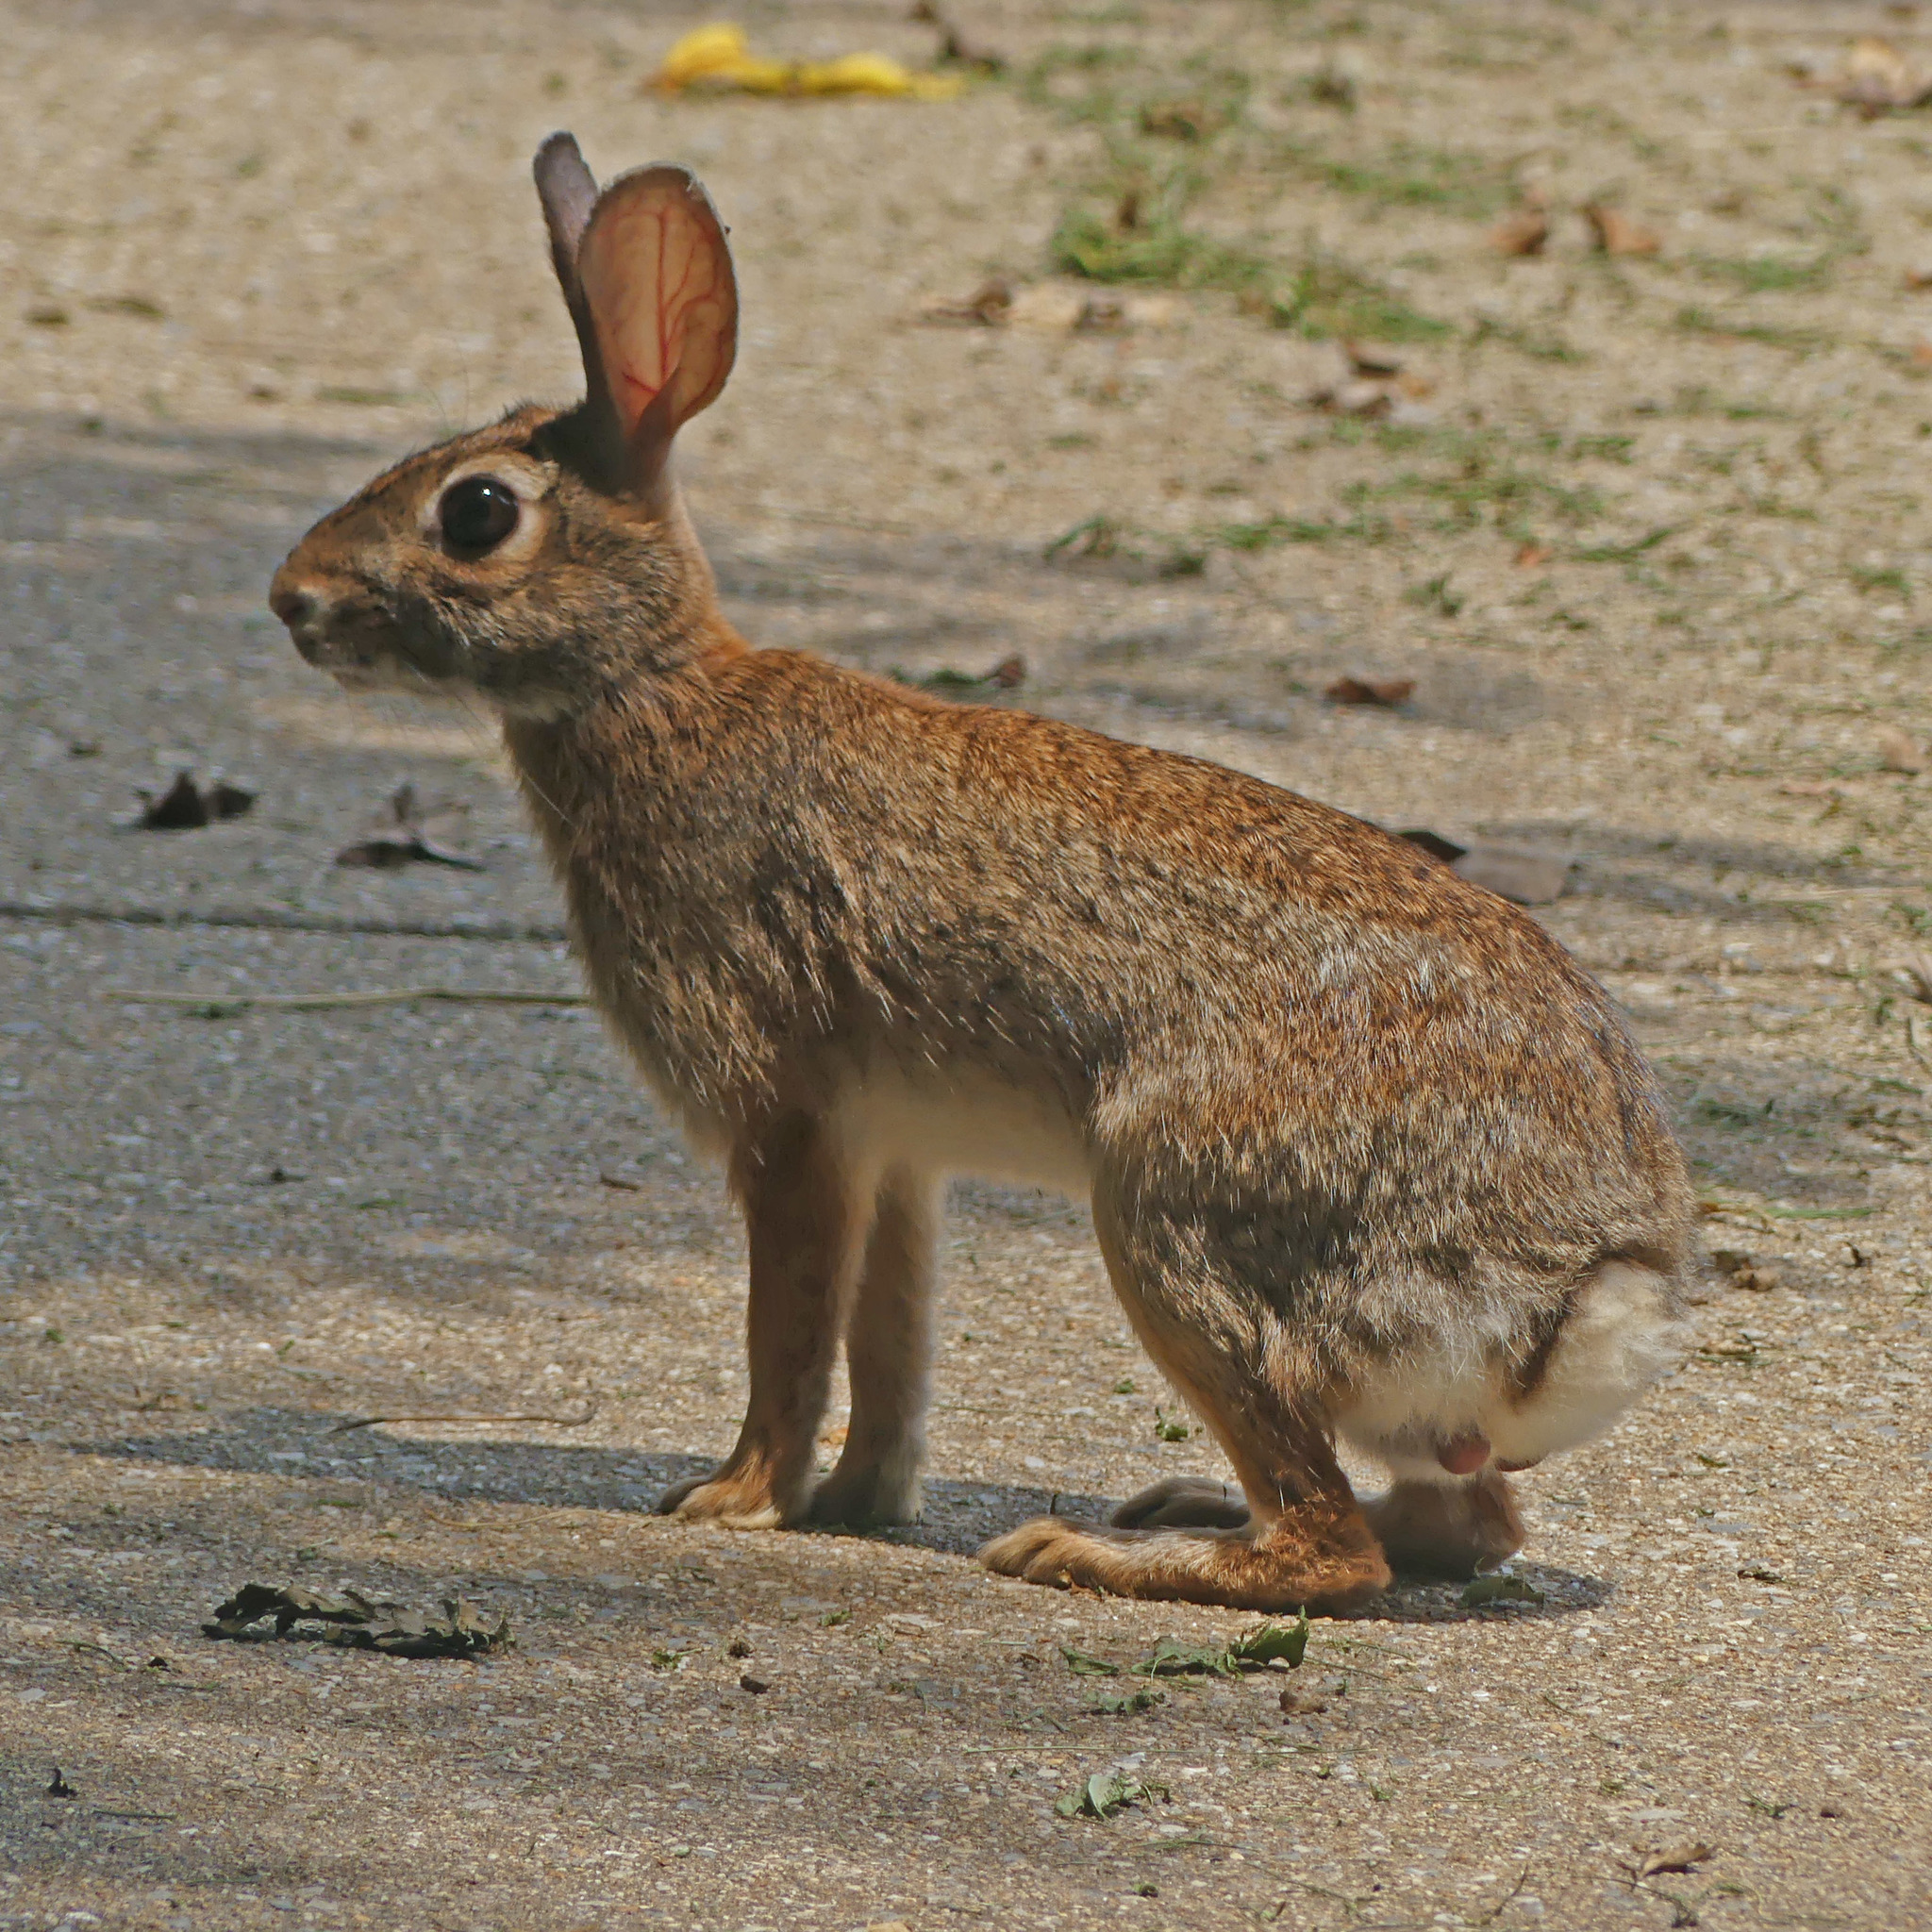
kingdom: Animalia
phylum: Chordata
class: Mammalia
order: Lagomorpha
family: Leporidae
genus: Sylvilagus
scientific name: Sylvilagus floridanus
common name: Eastern cottontail
